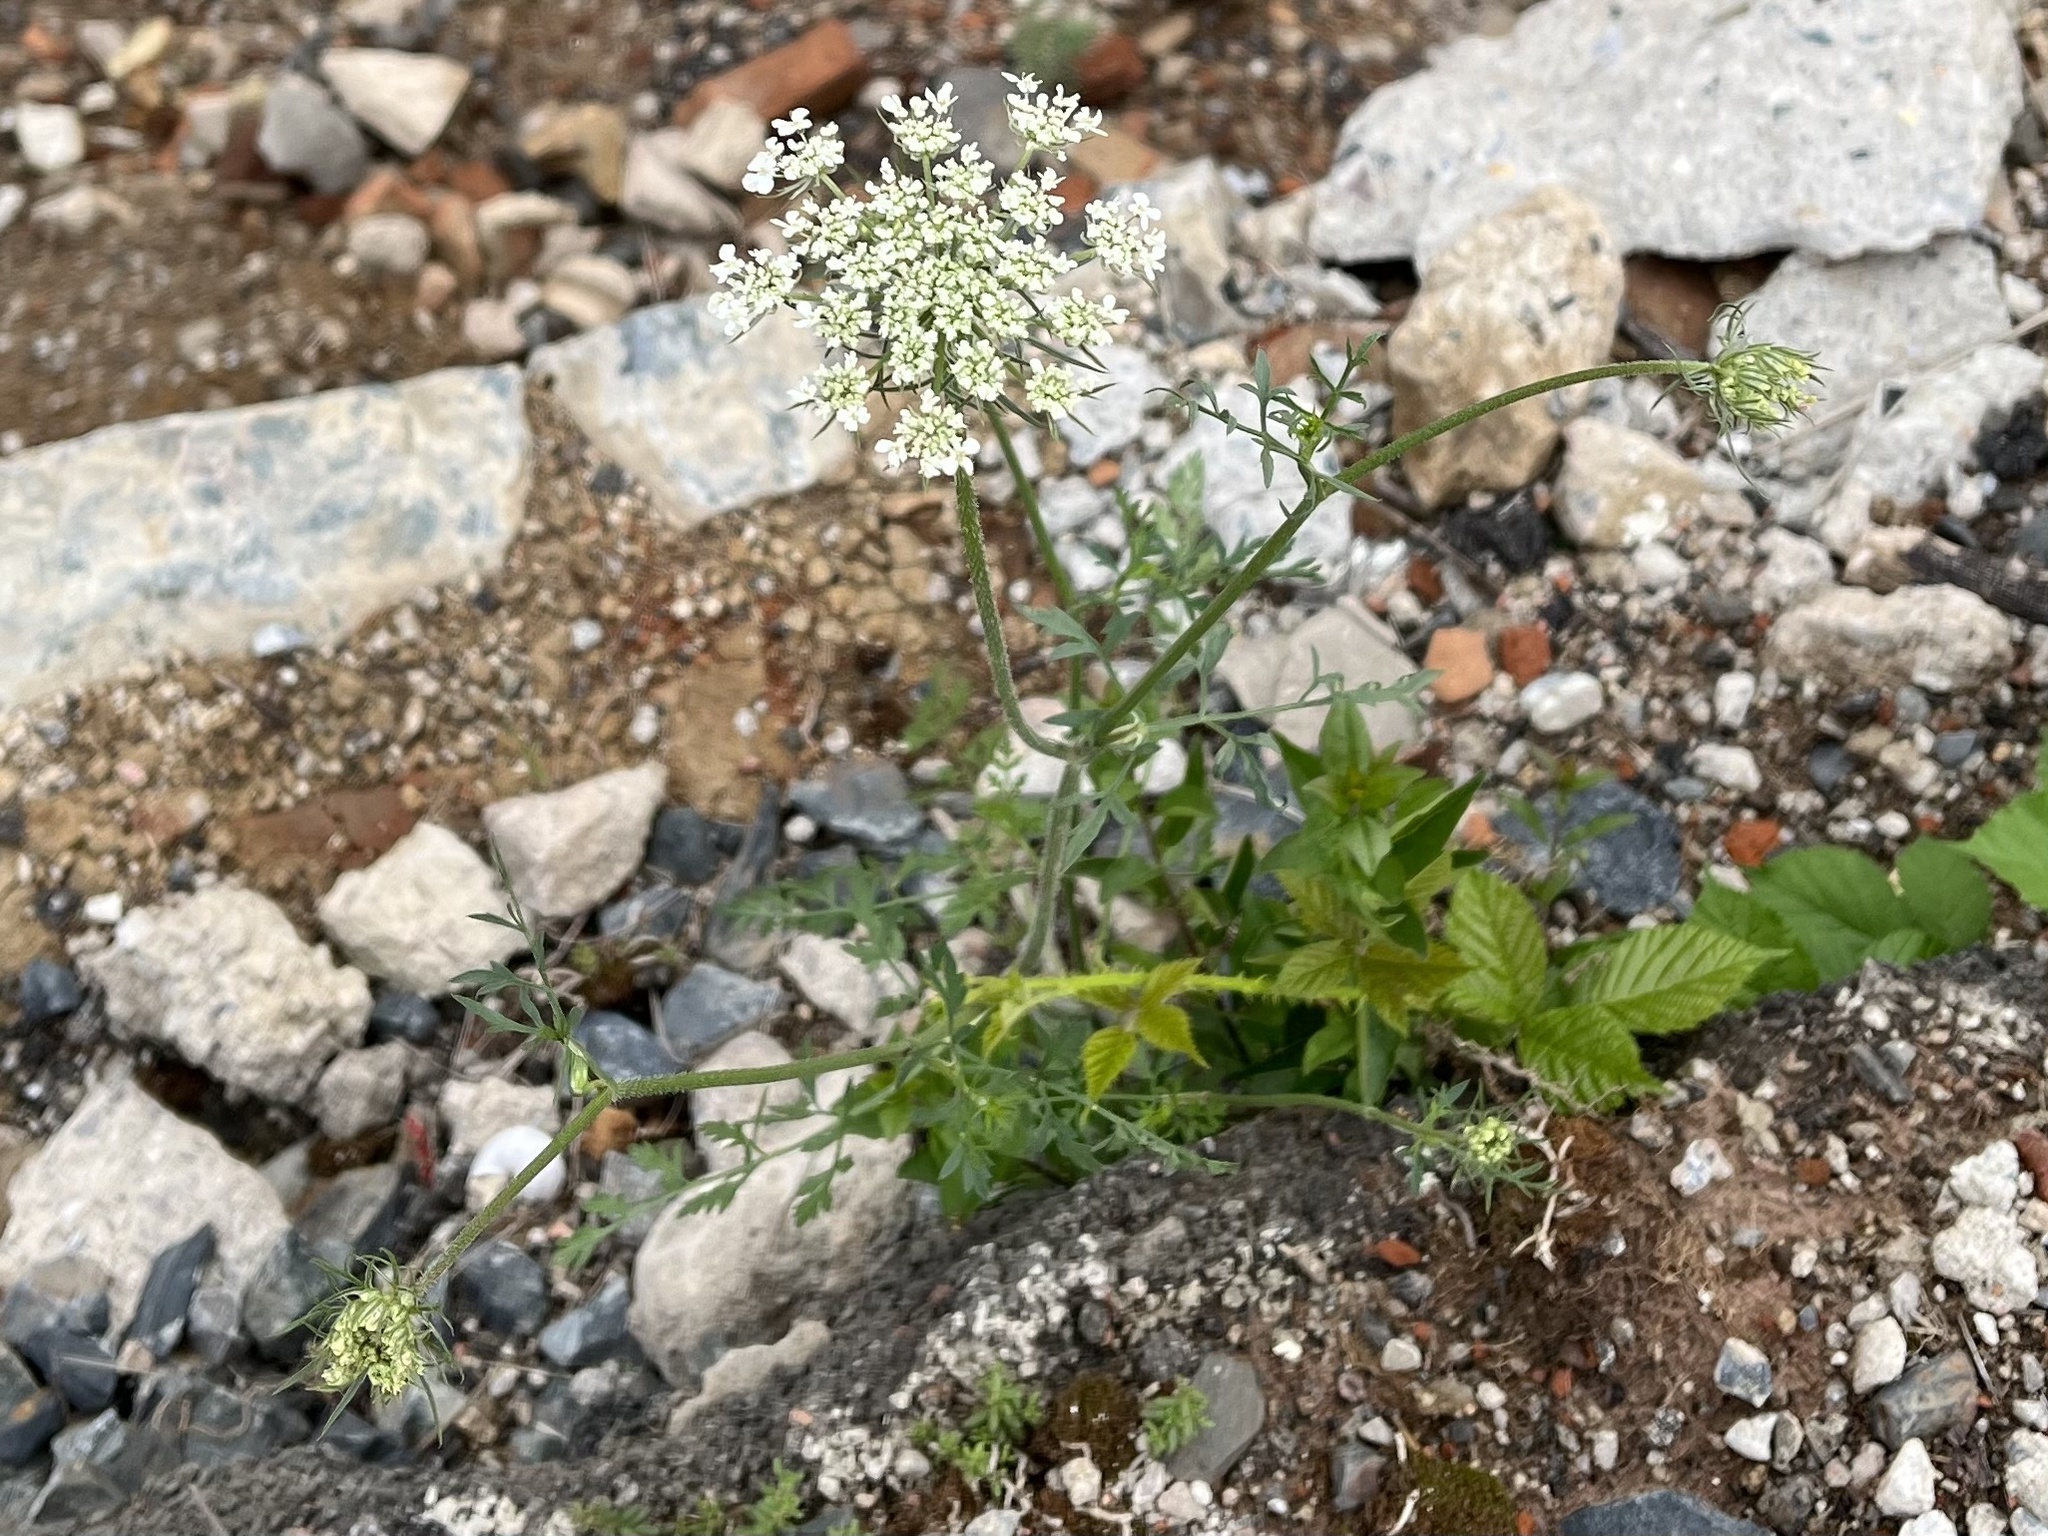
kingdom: Plantae
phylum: Tracheophyta
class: Magnoliopsida
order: Apiales
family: Apiaceae
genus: Daucus
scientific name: Daucus carota
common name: Wild carrot
